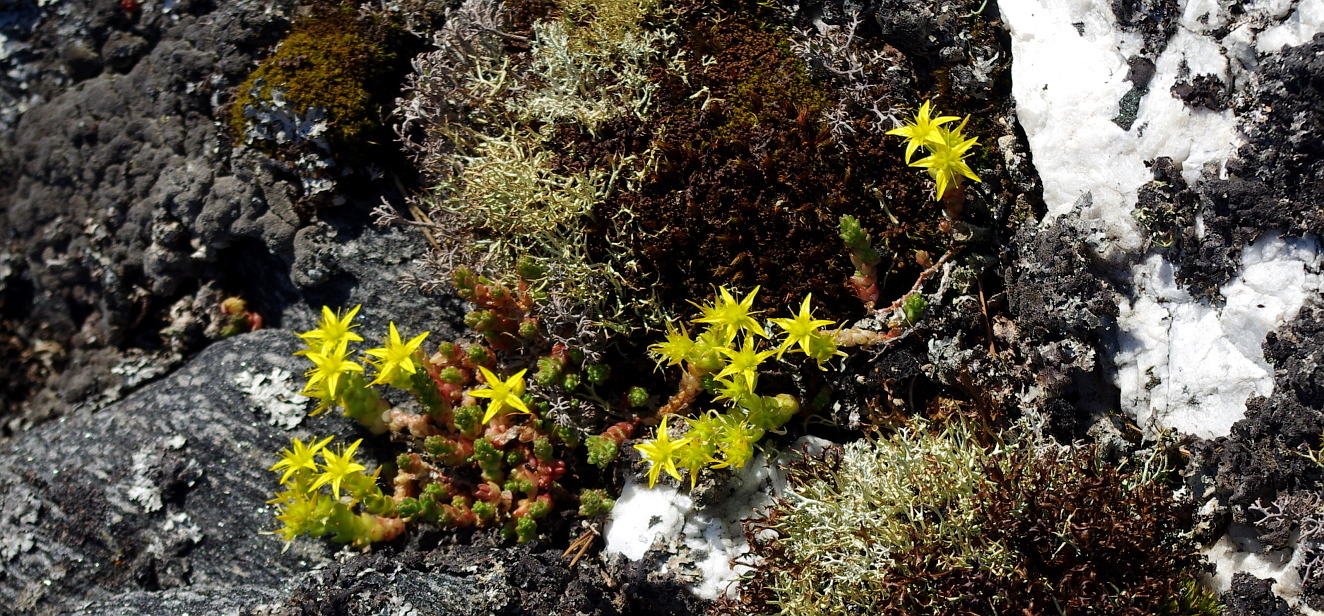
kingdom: Plantae
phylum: Tracheophyta
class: Magnoliopsida
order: Saxifragales
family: Crassulaceae
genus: Sedum
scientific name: Sedum acre
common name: Biting stonecrop
